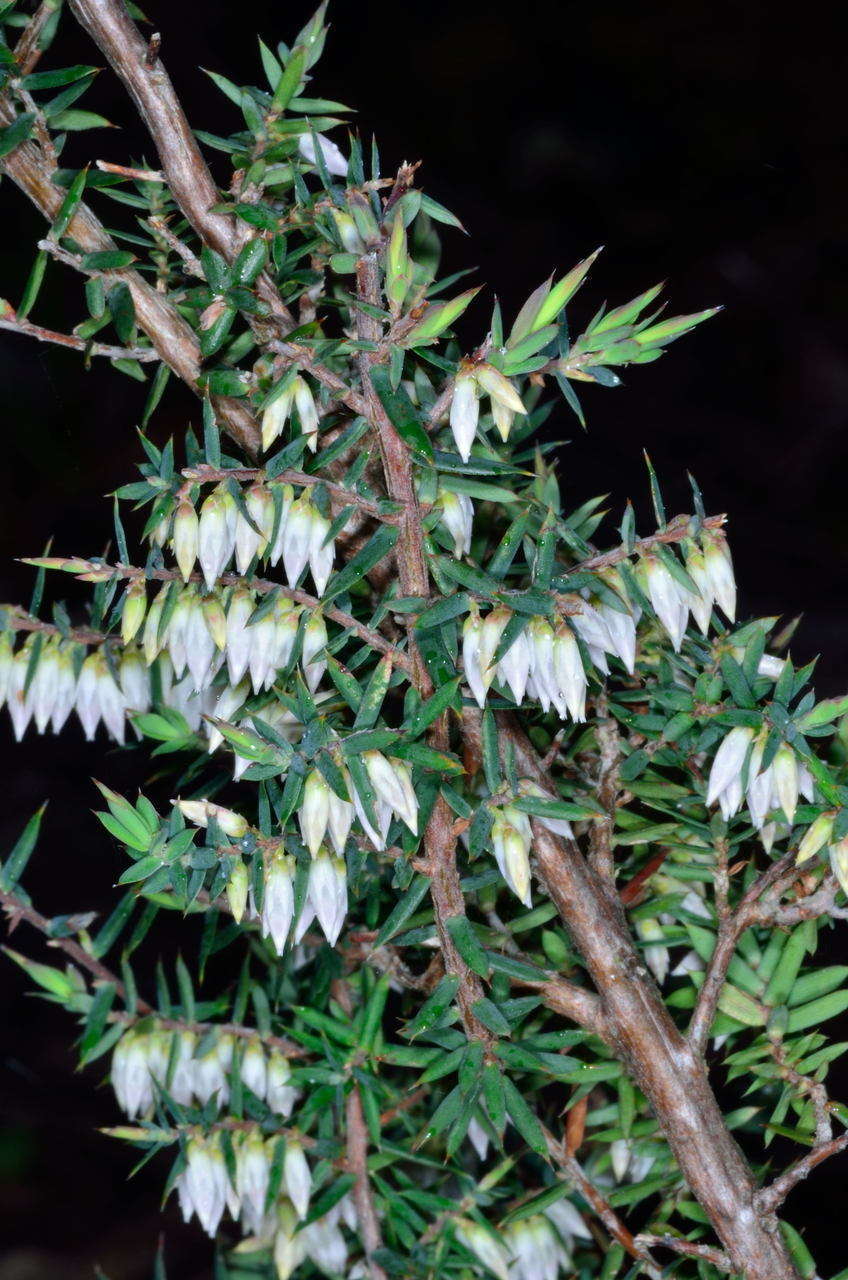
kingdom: Plantae
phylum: Tracheophyta
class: Magnoliopsida
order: Ericales
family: Ericaceae
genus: Styphelia
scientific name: Styphelia fletcheri
